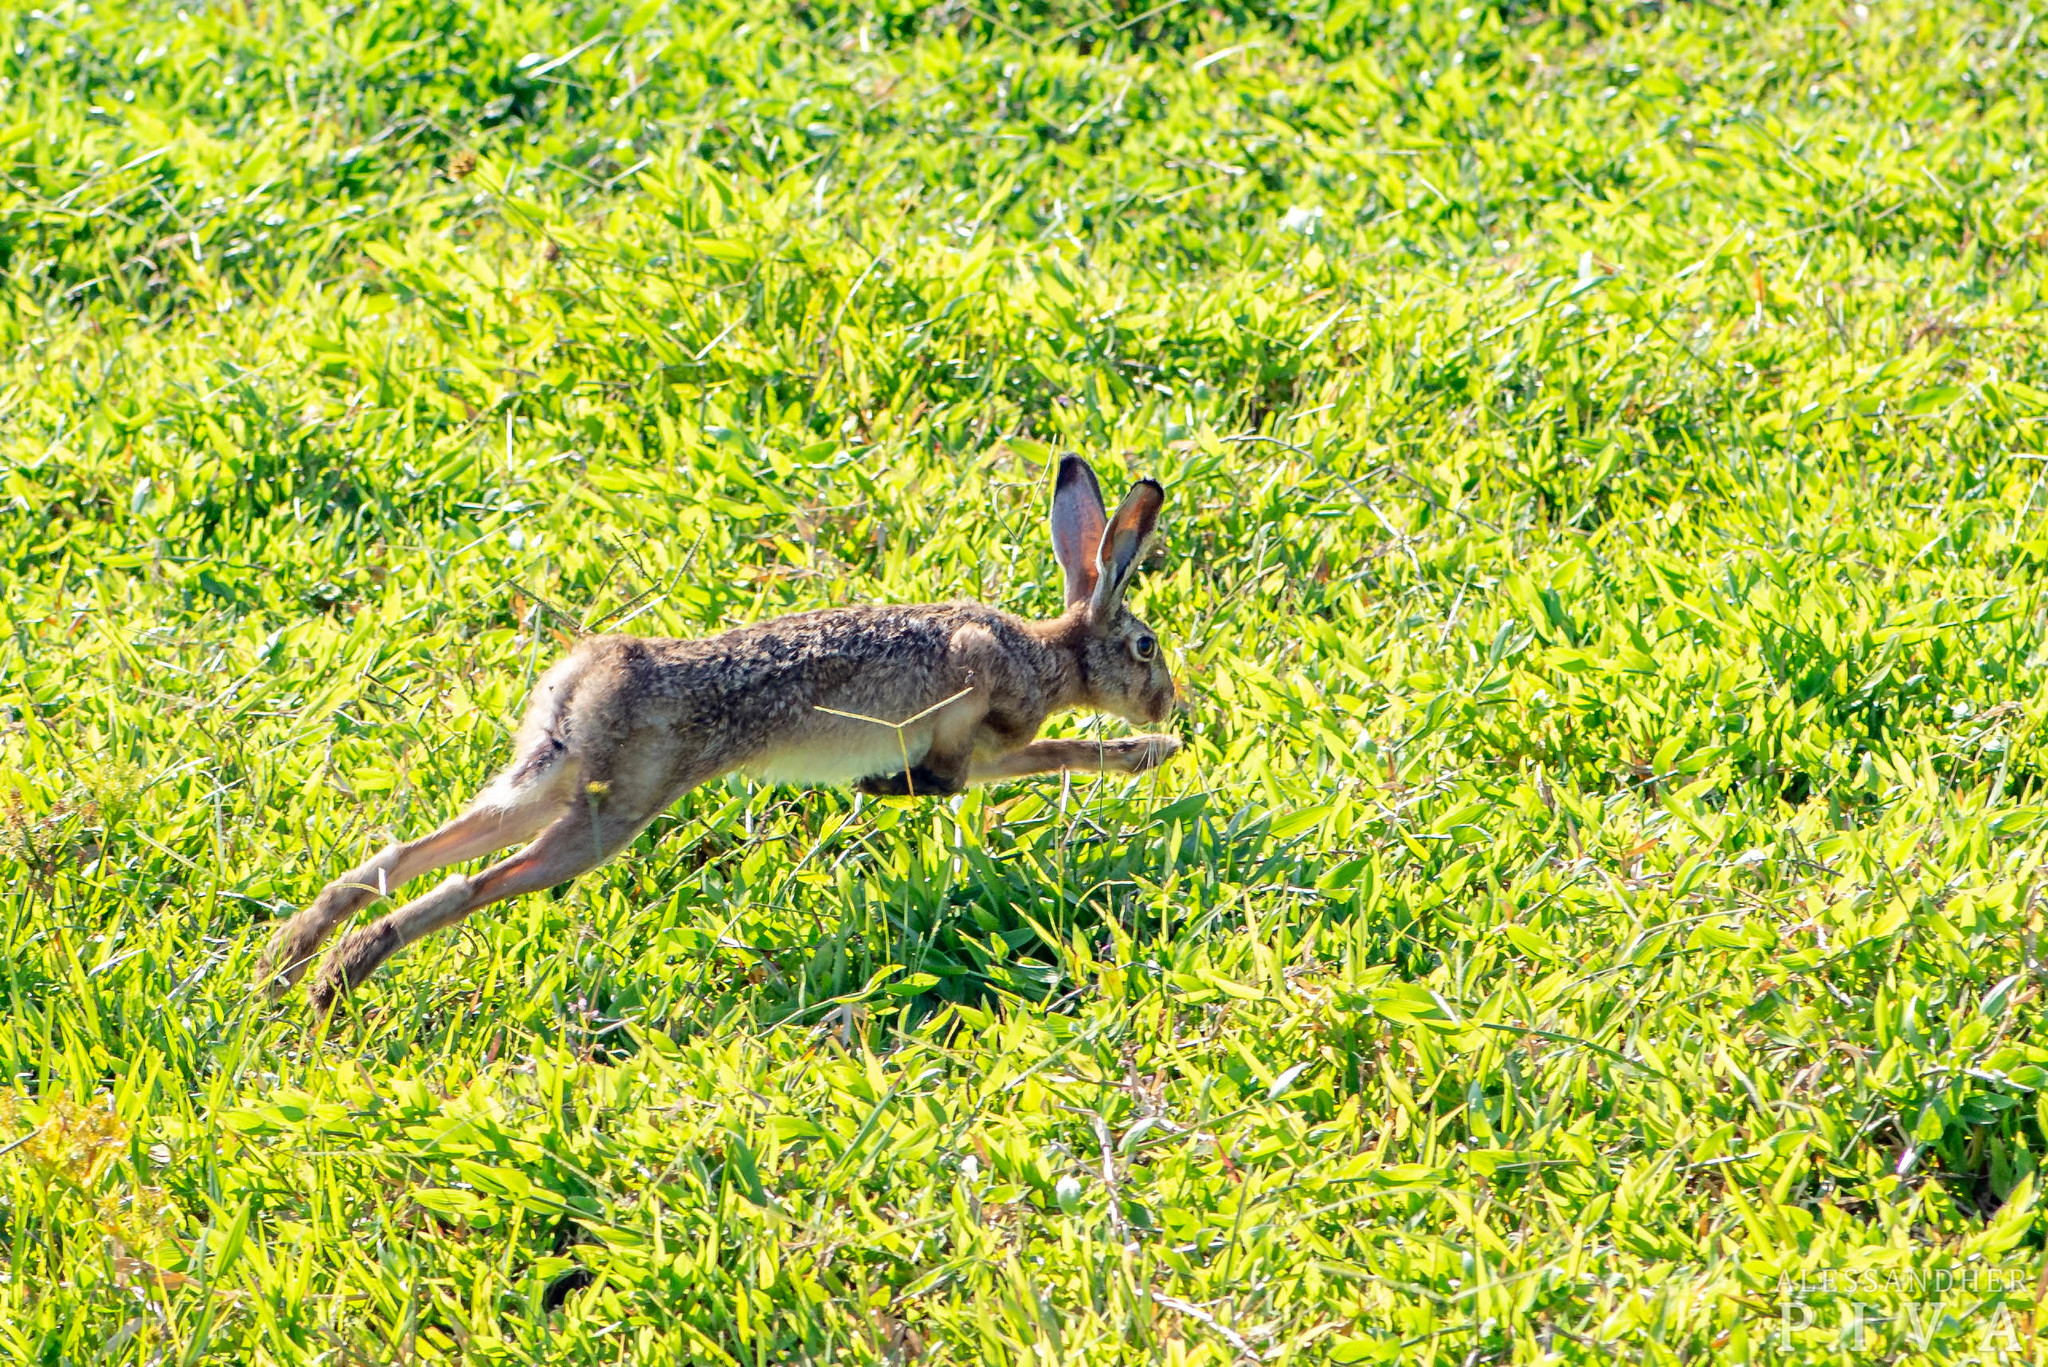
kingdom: Animalia
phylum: Chordata
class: Mammalia
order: Lagomorpha
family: Leporidae
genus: Lepus
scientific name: Lepus europaeus
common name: European hare
